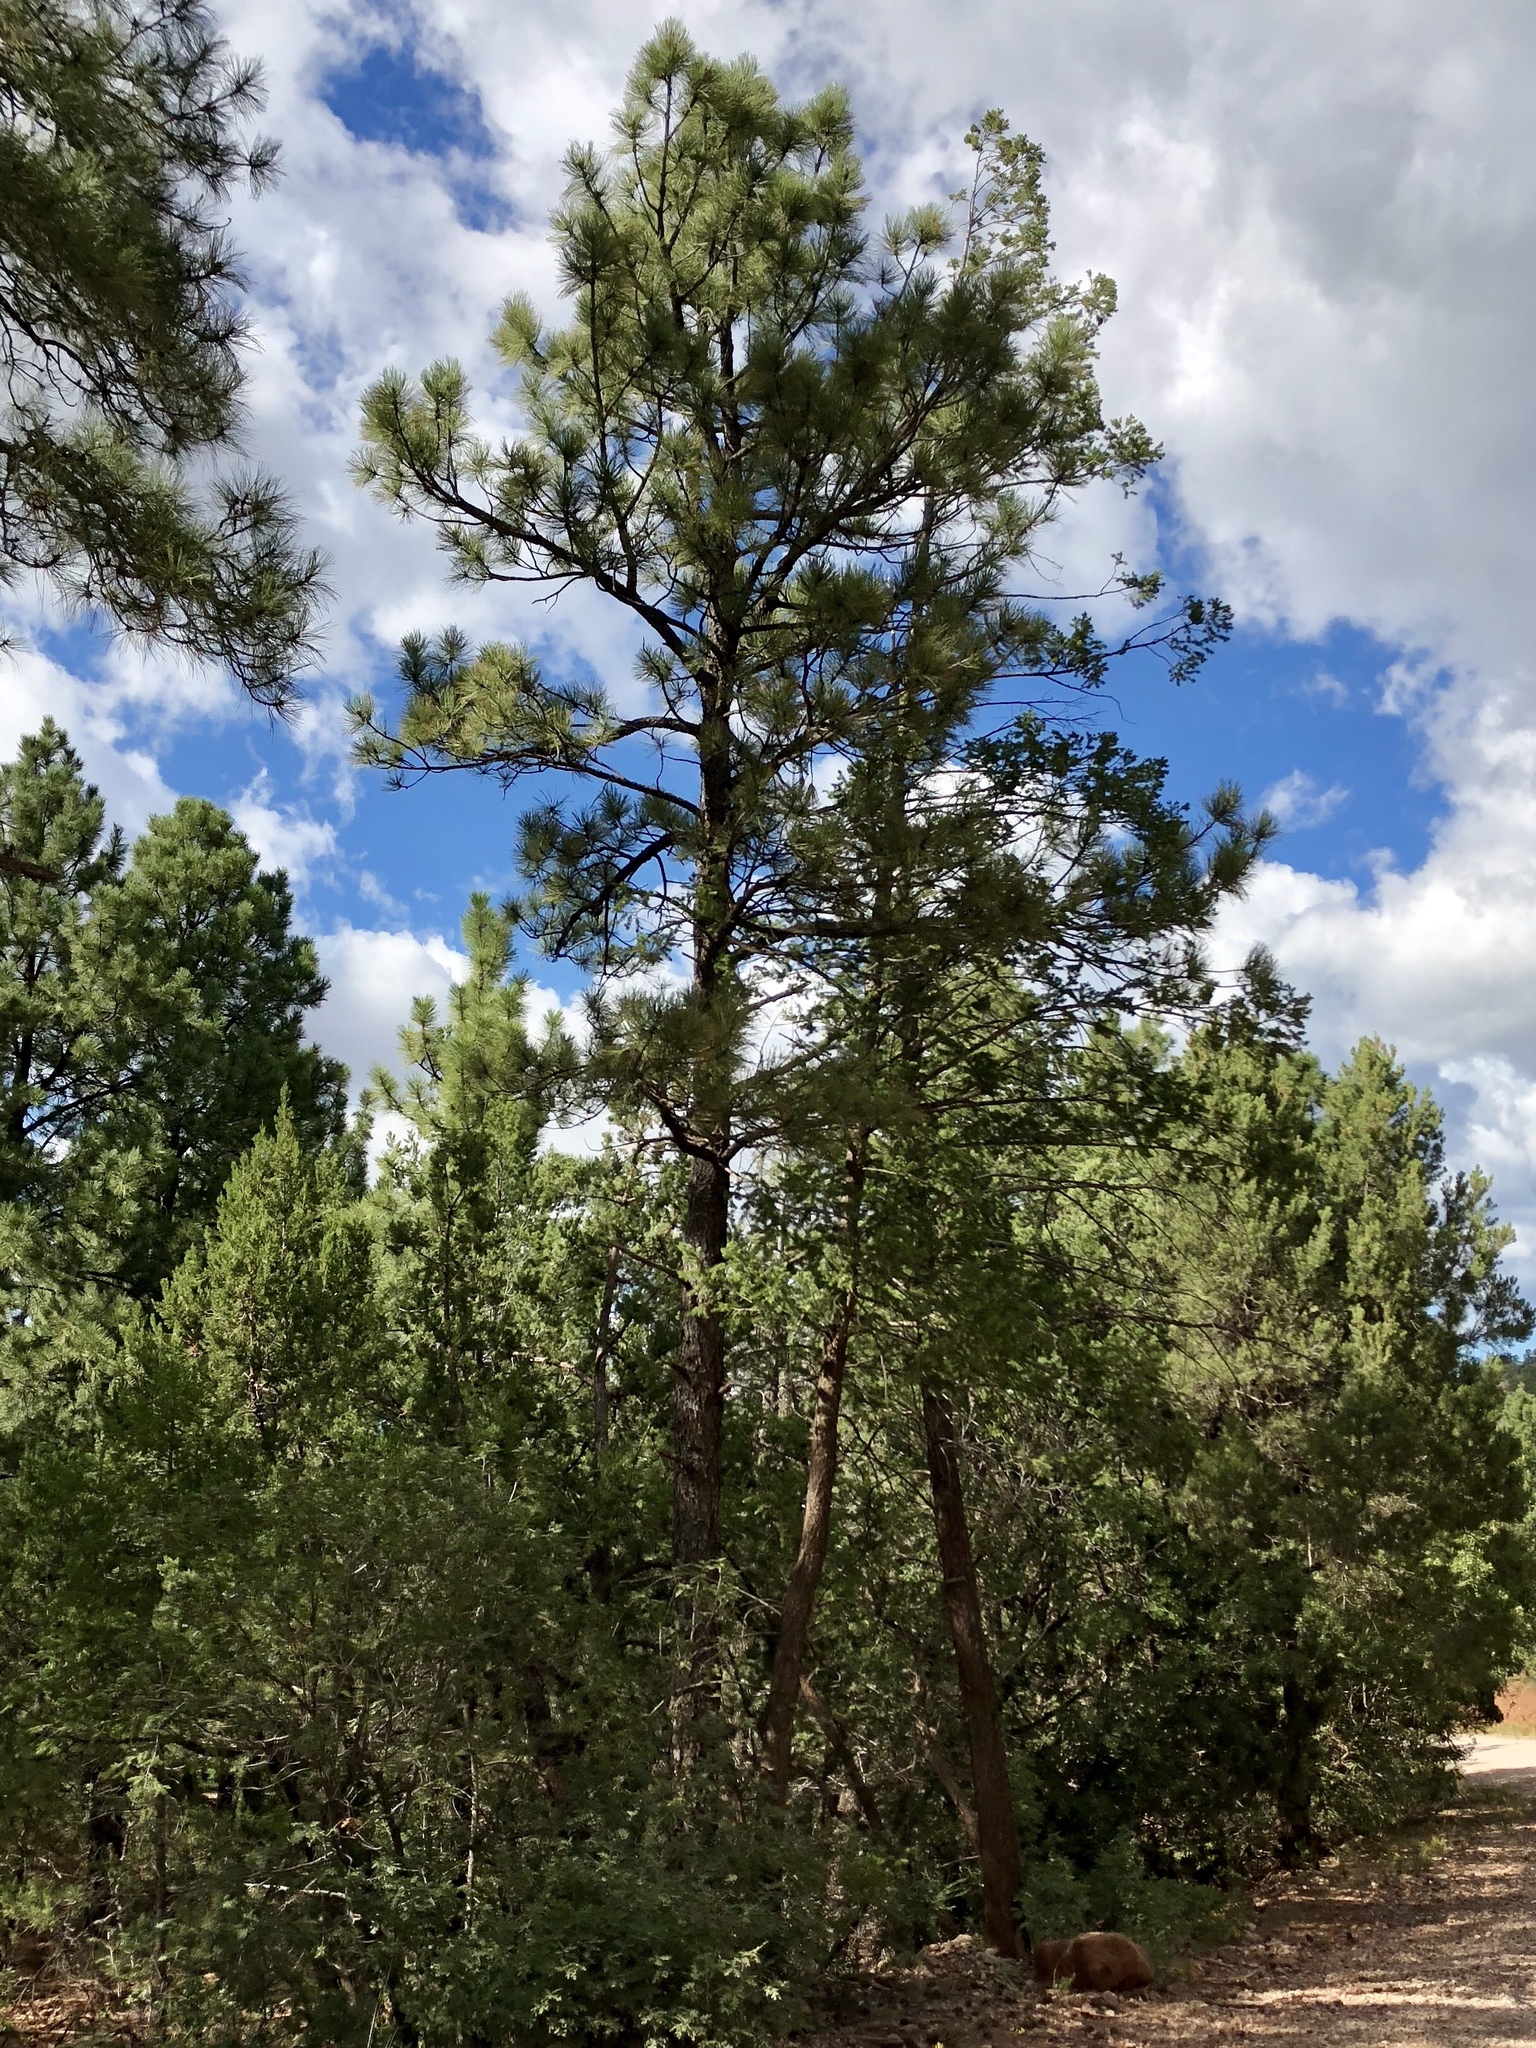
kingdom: Plantae
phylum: Tracheophyta
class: Pinopsida
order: Pinales
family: Pinaceae
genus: Pinus
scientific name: Pinus ponderosa
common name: Western yellow-pine
